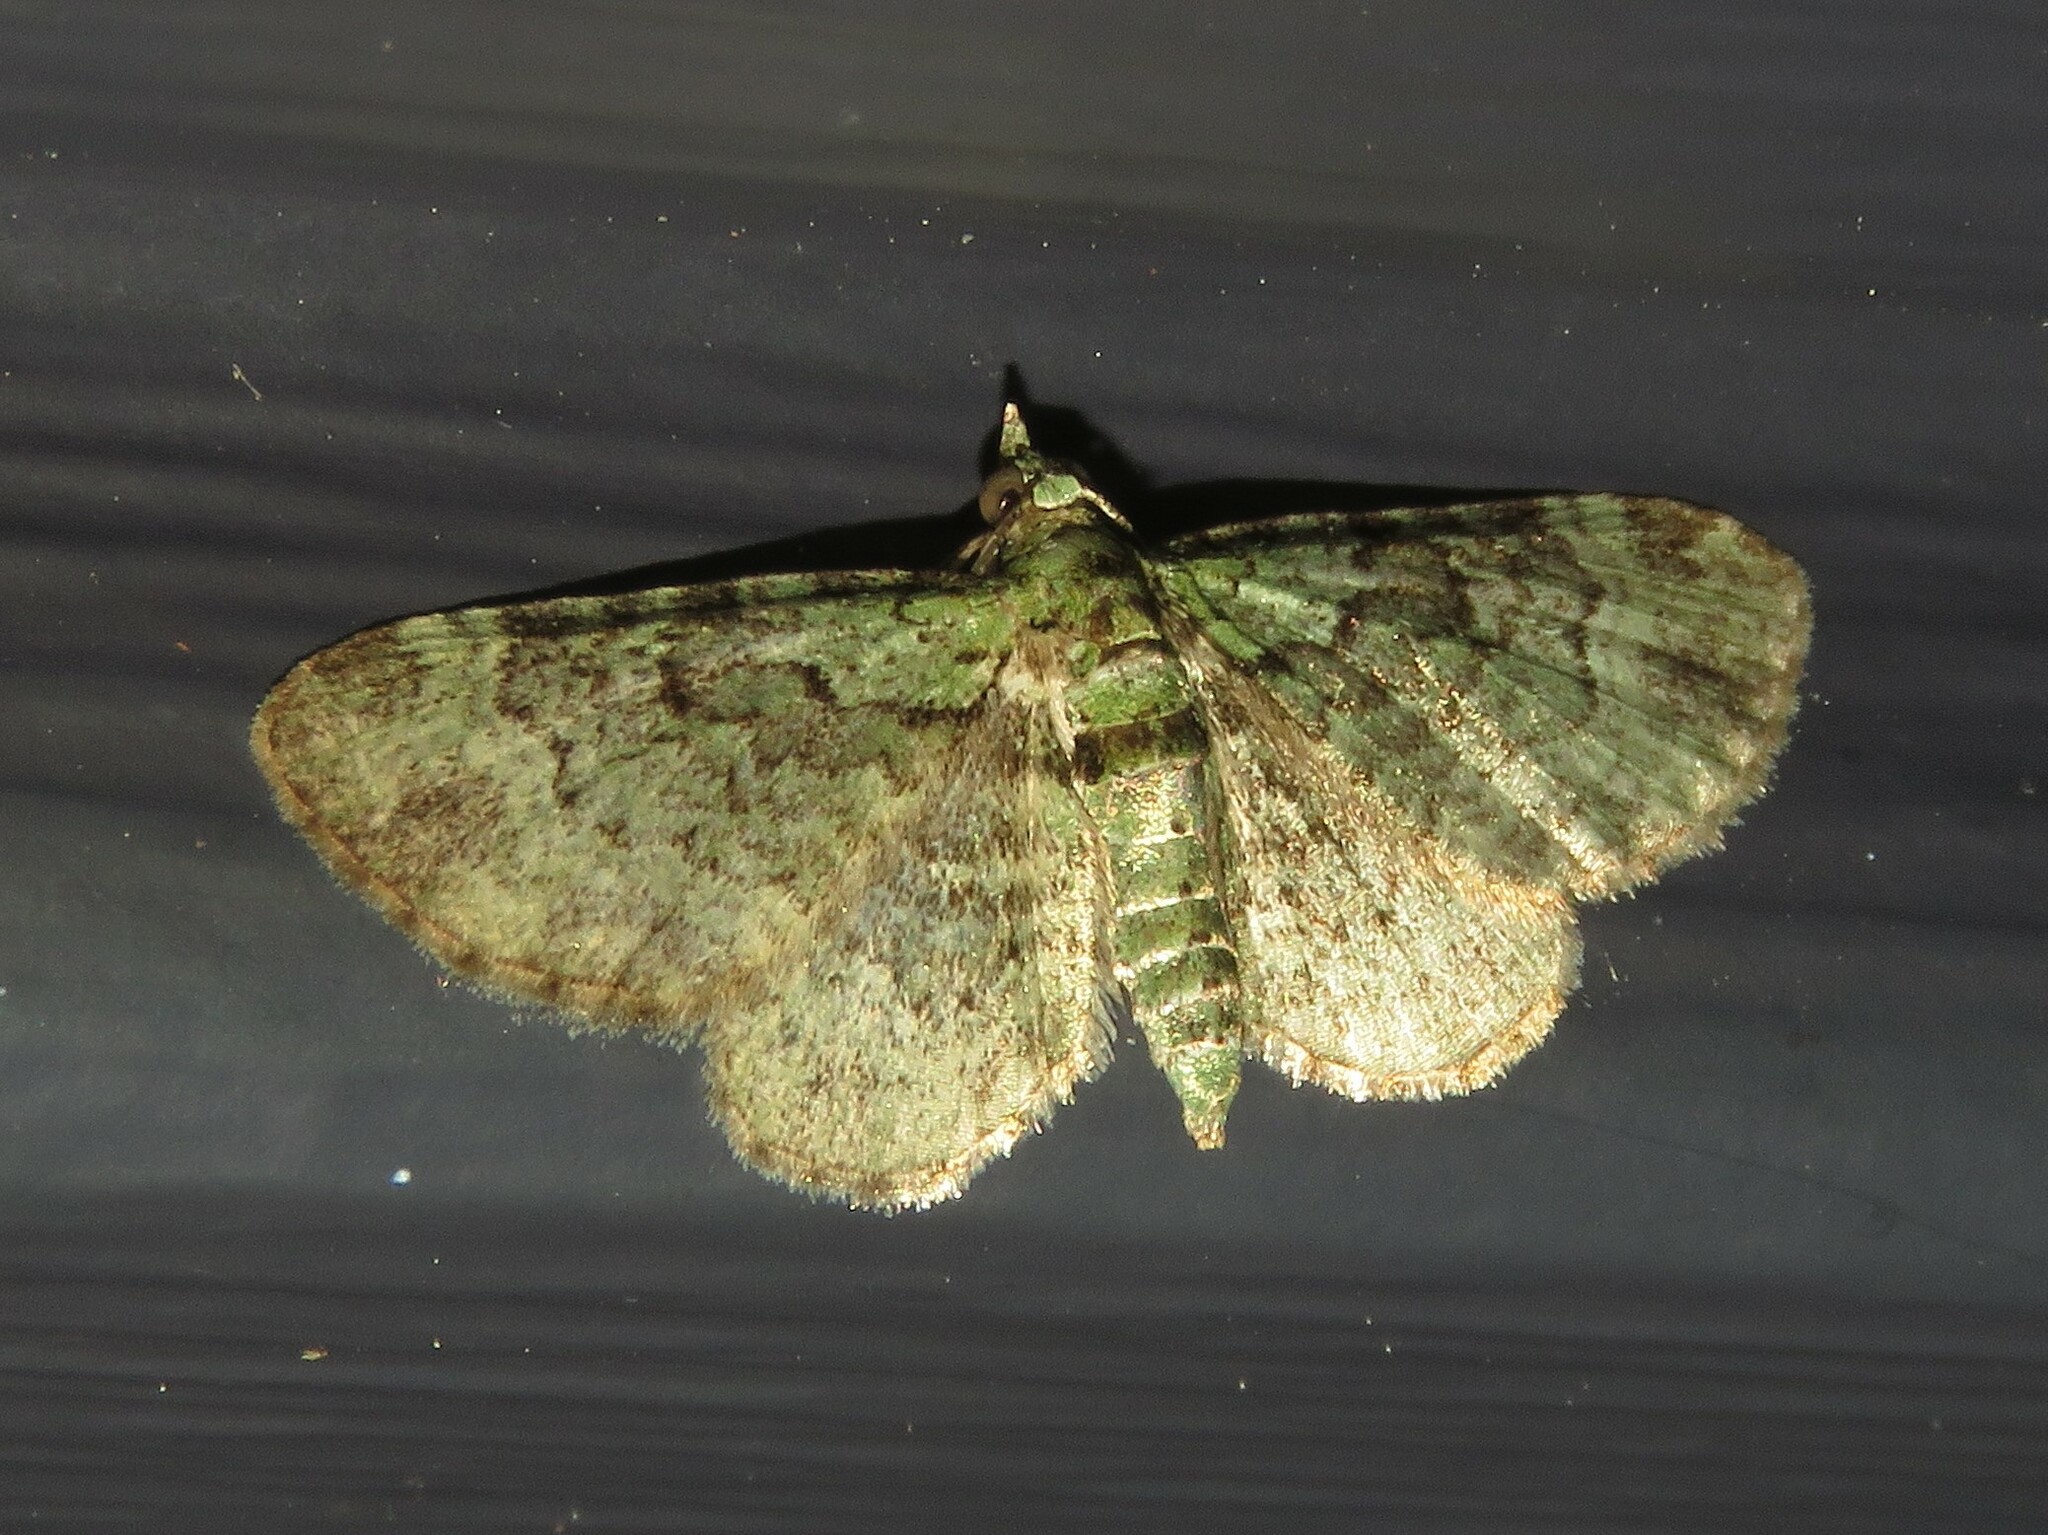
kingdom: Animalia
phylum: Arthropoda
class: Insecta
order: Lepidoptera
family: Geometridae
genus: Pasiphila
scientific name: Pasiphila rectangulata
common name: Green pug
